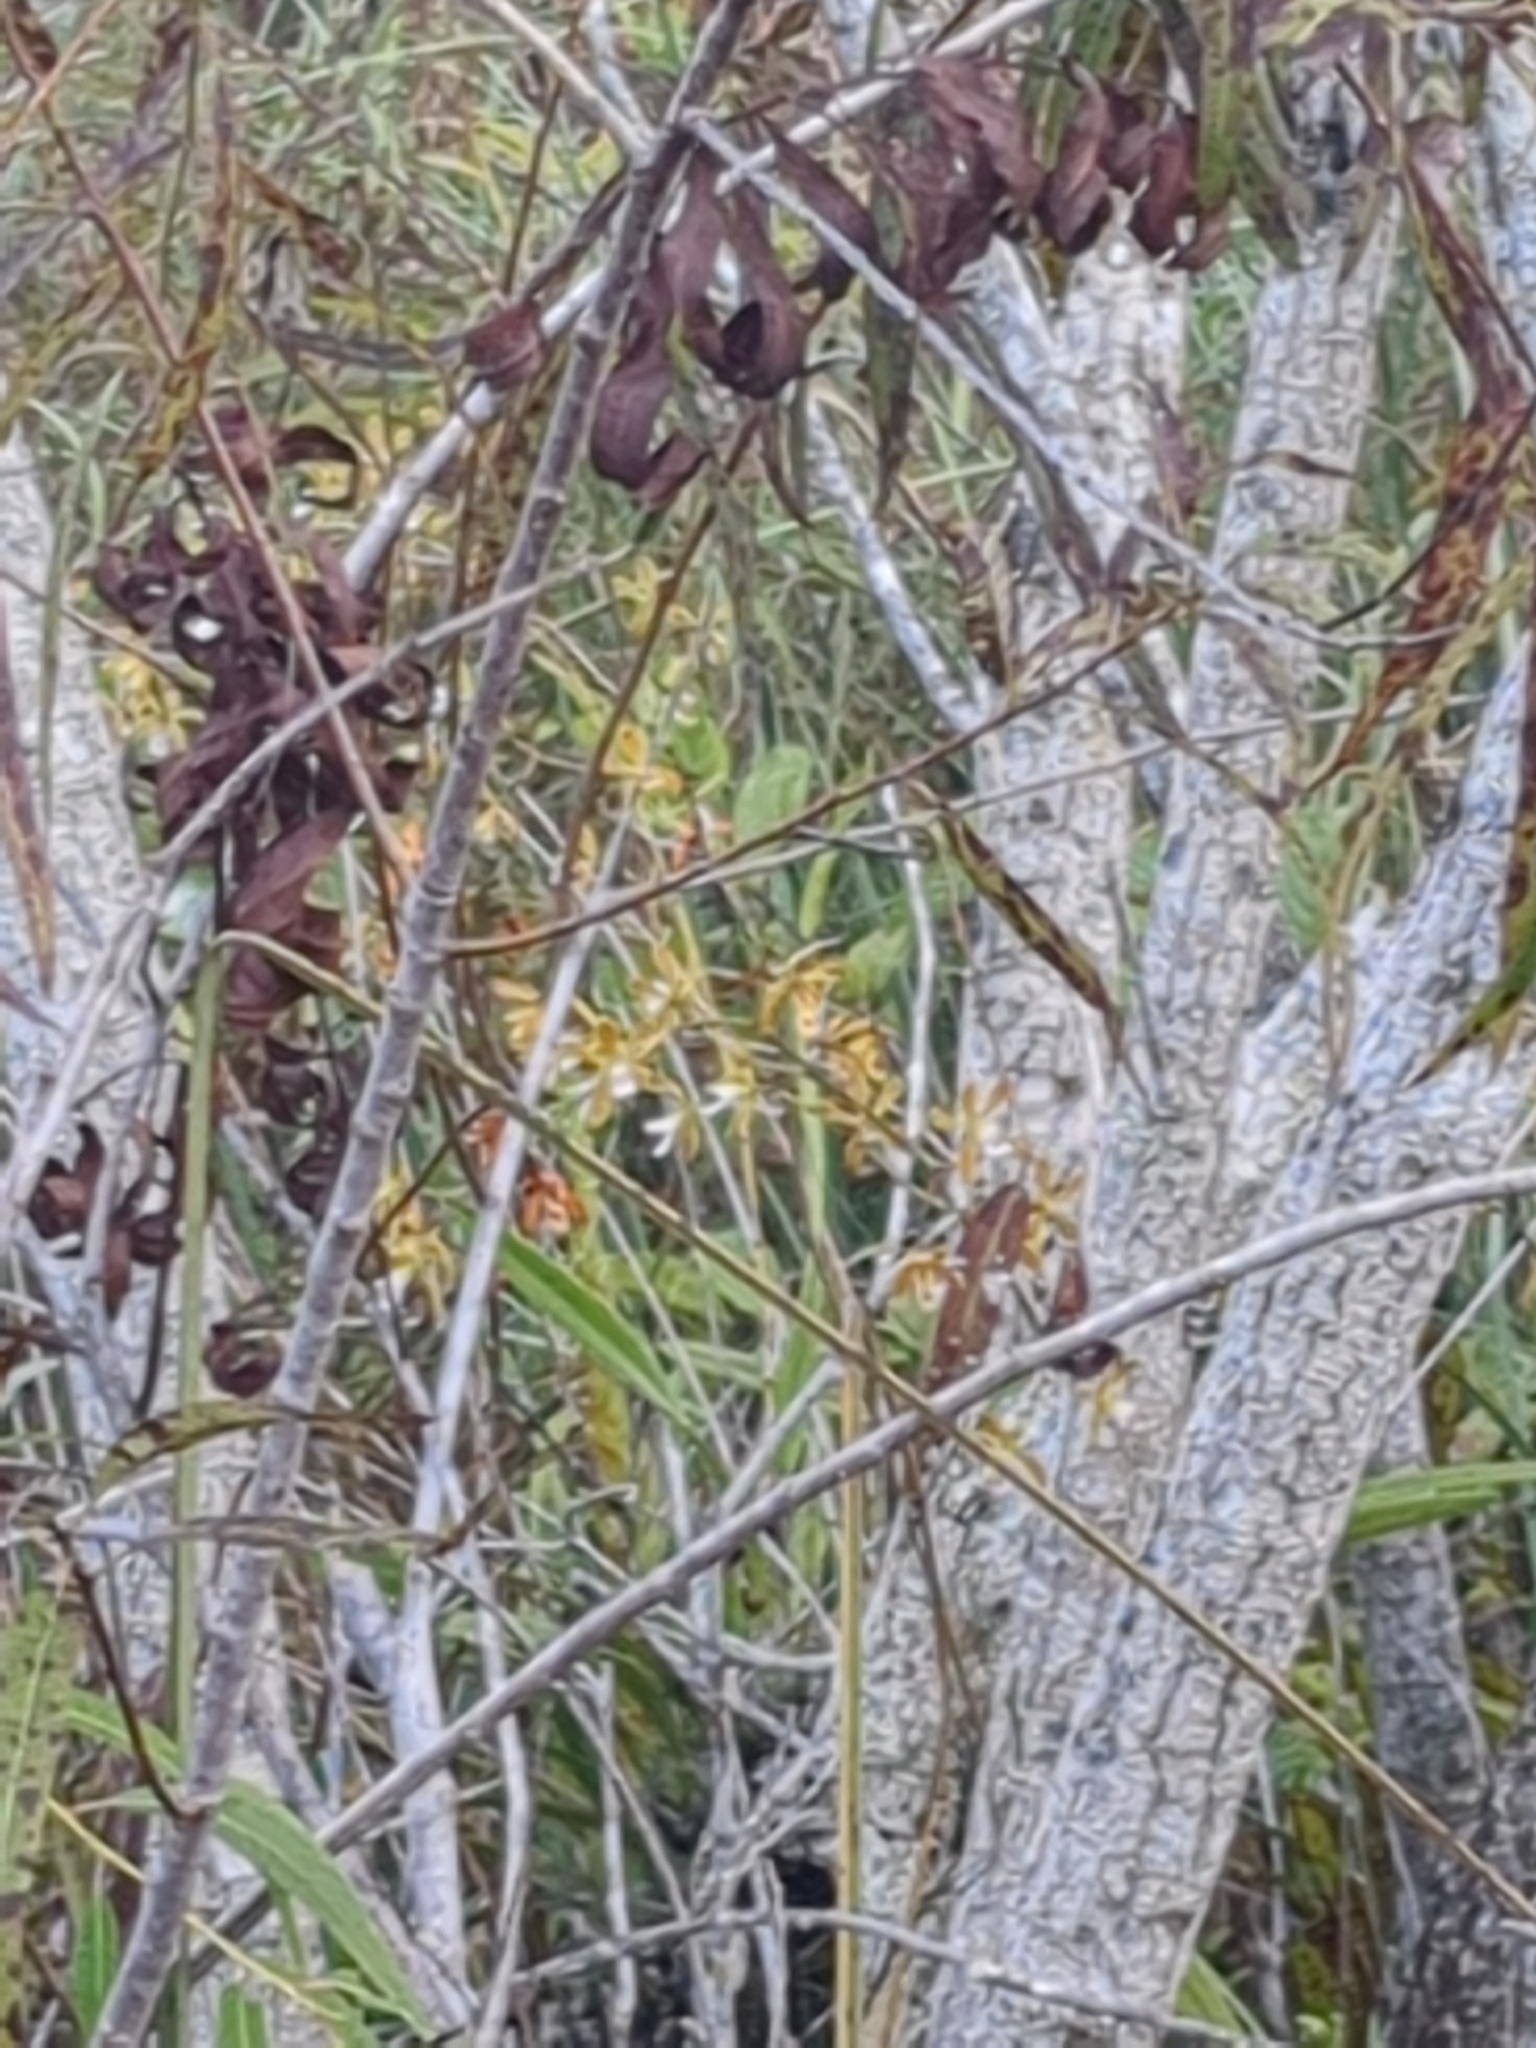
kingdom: Plantae
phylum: Tracheophyta
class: Liliopsida
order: Asparagales
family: Orchidaceae
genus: Encyclia
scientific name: Encyclia tampensis
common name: Florida butterfly orchid
